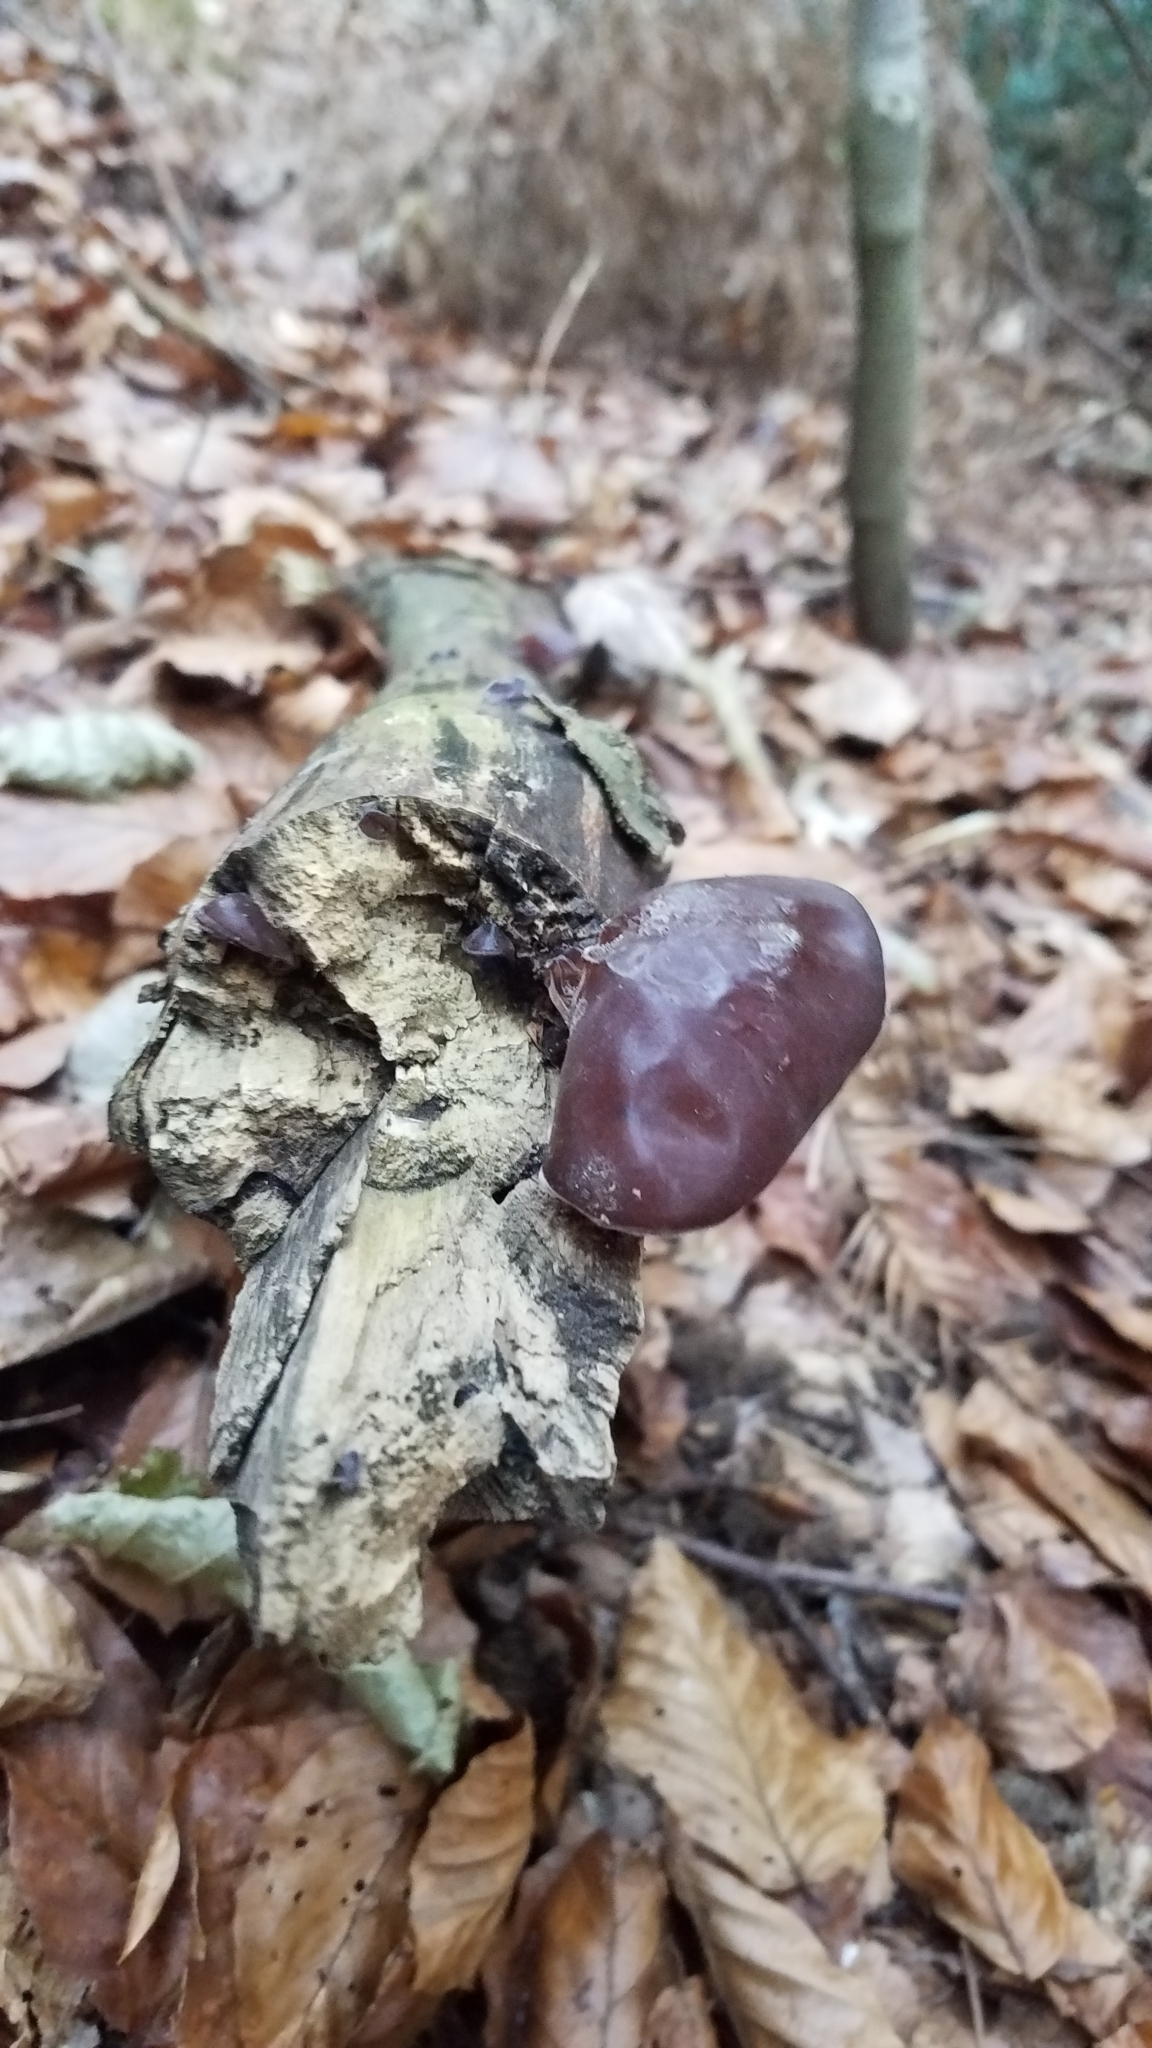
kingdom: Fungi
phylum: Basidiomycota
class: Agaricomycetes
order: Auriculariales
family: Auriculariaceae
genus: Auricularia
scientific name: Auricularia auricula-judae
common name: Jelly ear
